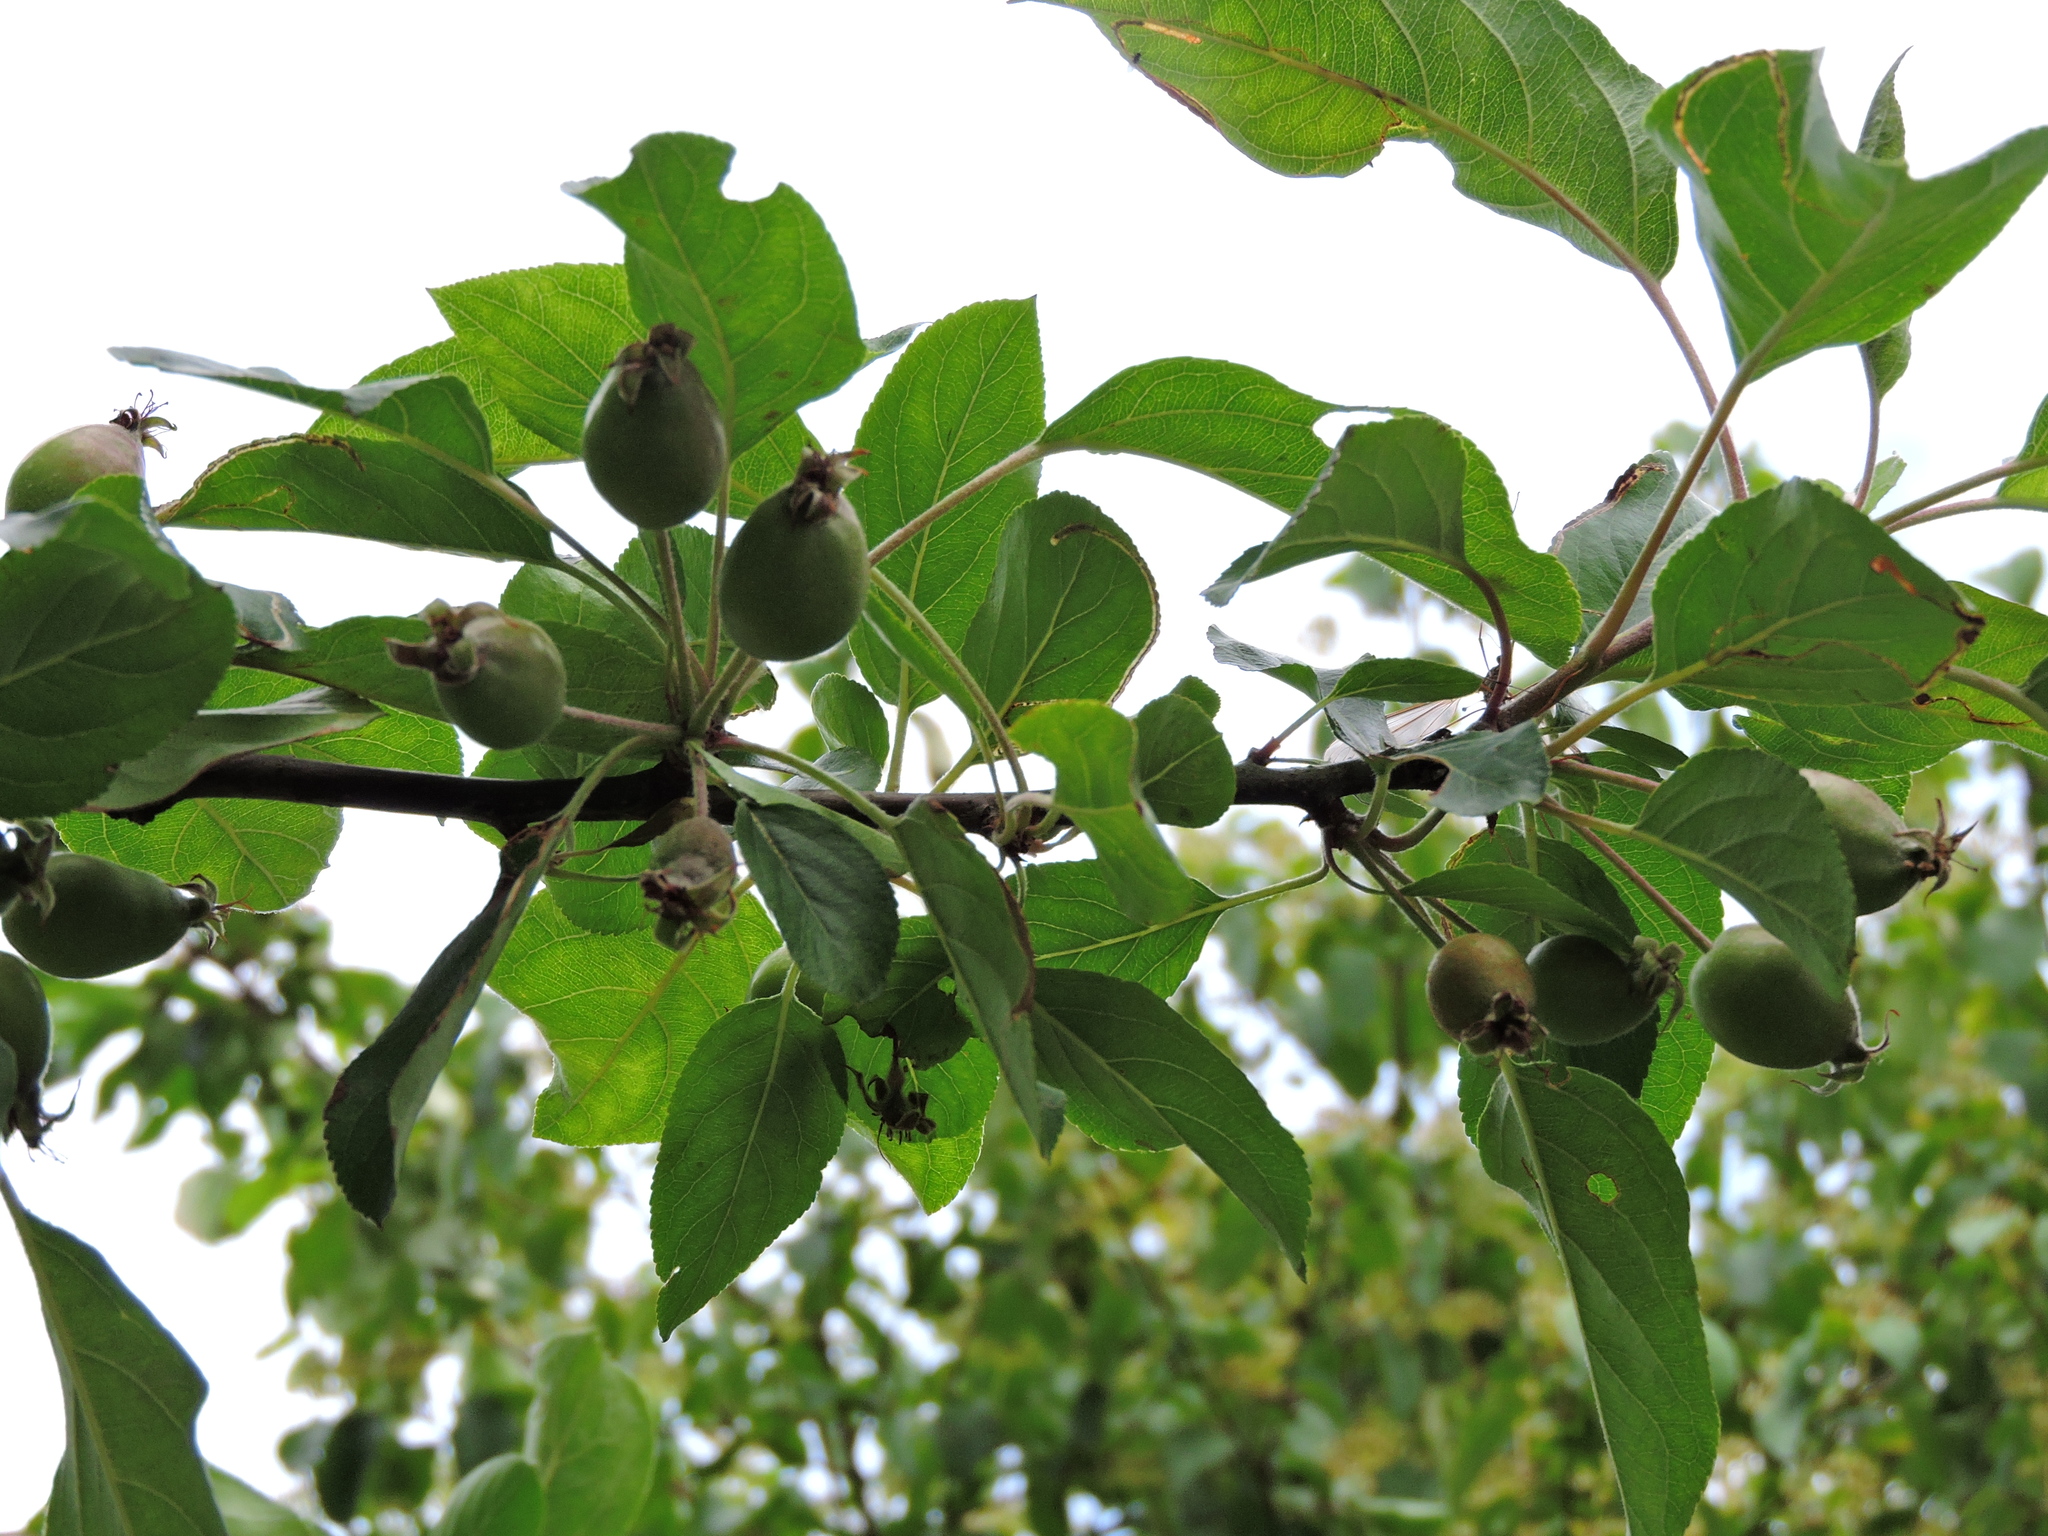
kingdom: Plantae
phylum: Tracheophyta
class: Magnoliopsida
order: Rosales
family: Rosaceae
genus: Malus
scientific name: Malus sylvestris
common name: Crab apple
